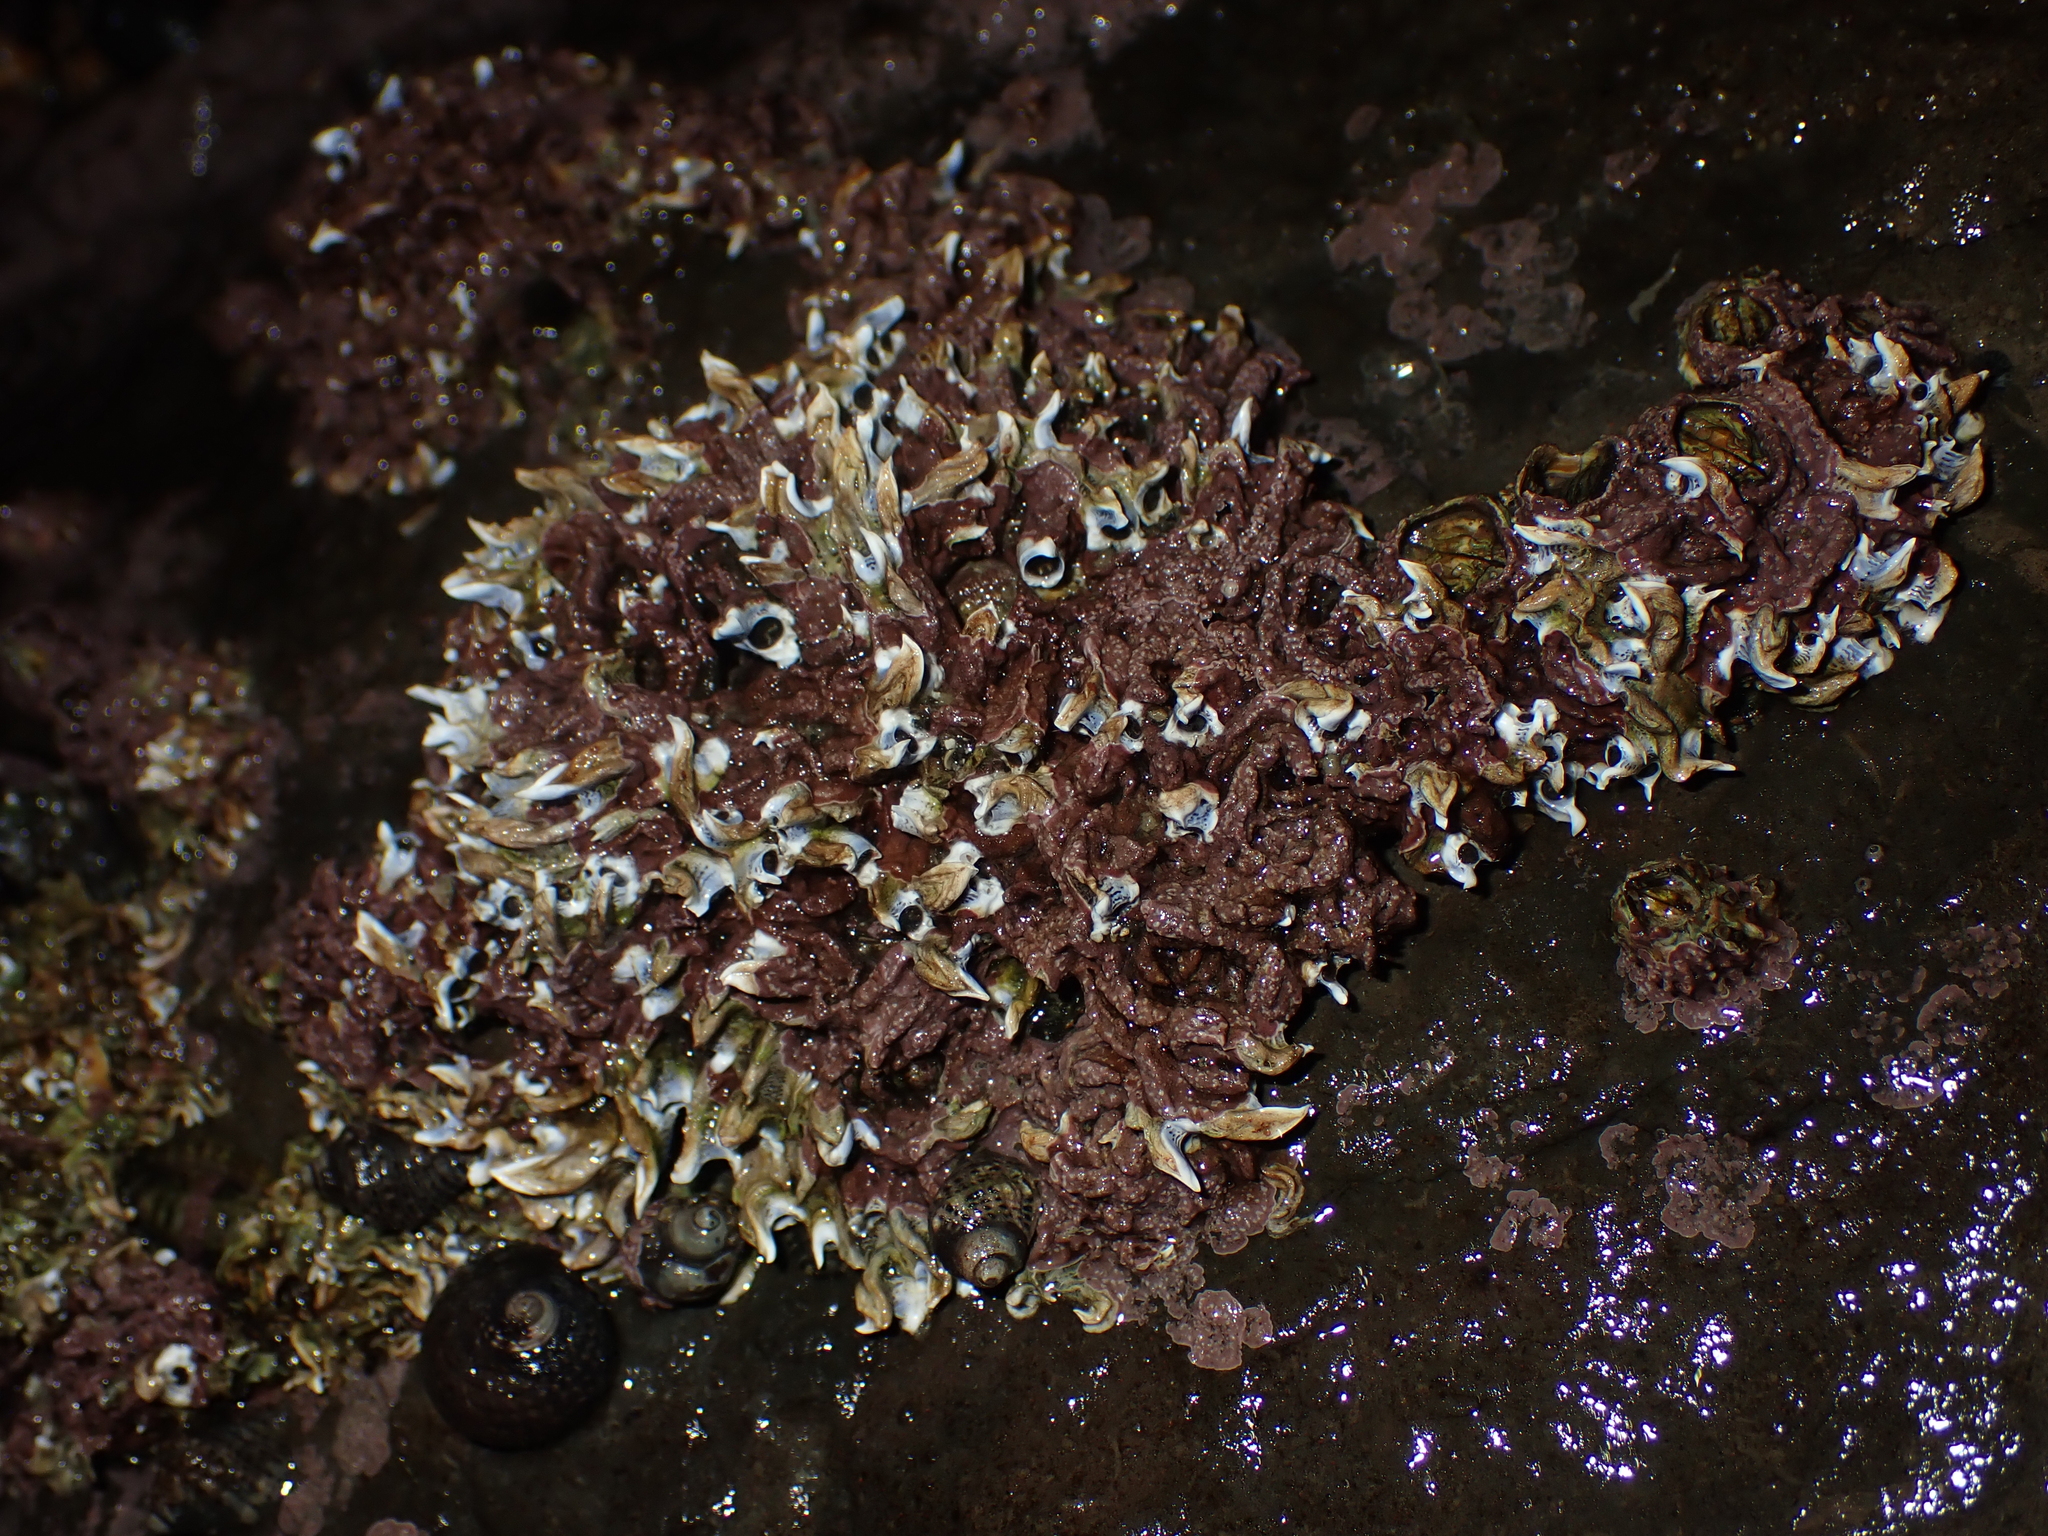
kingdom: Animalia
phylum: Annelida
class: Polychaeta
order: Sabellida
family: Serpulidae
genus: Spirobranchus
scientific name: Spirobranchus cariniferus
